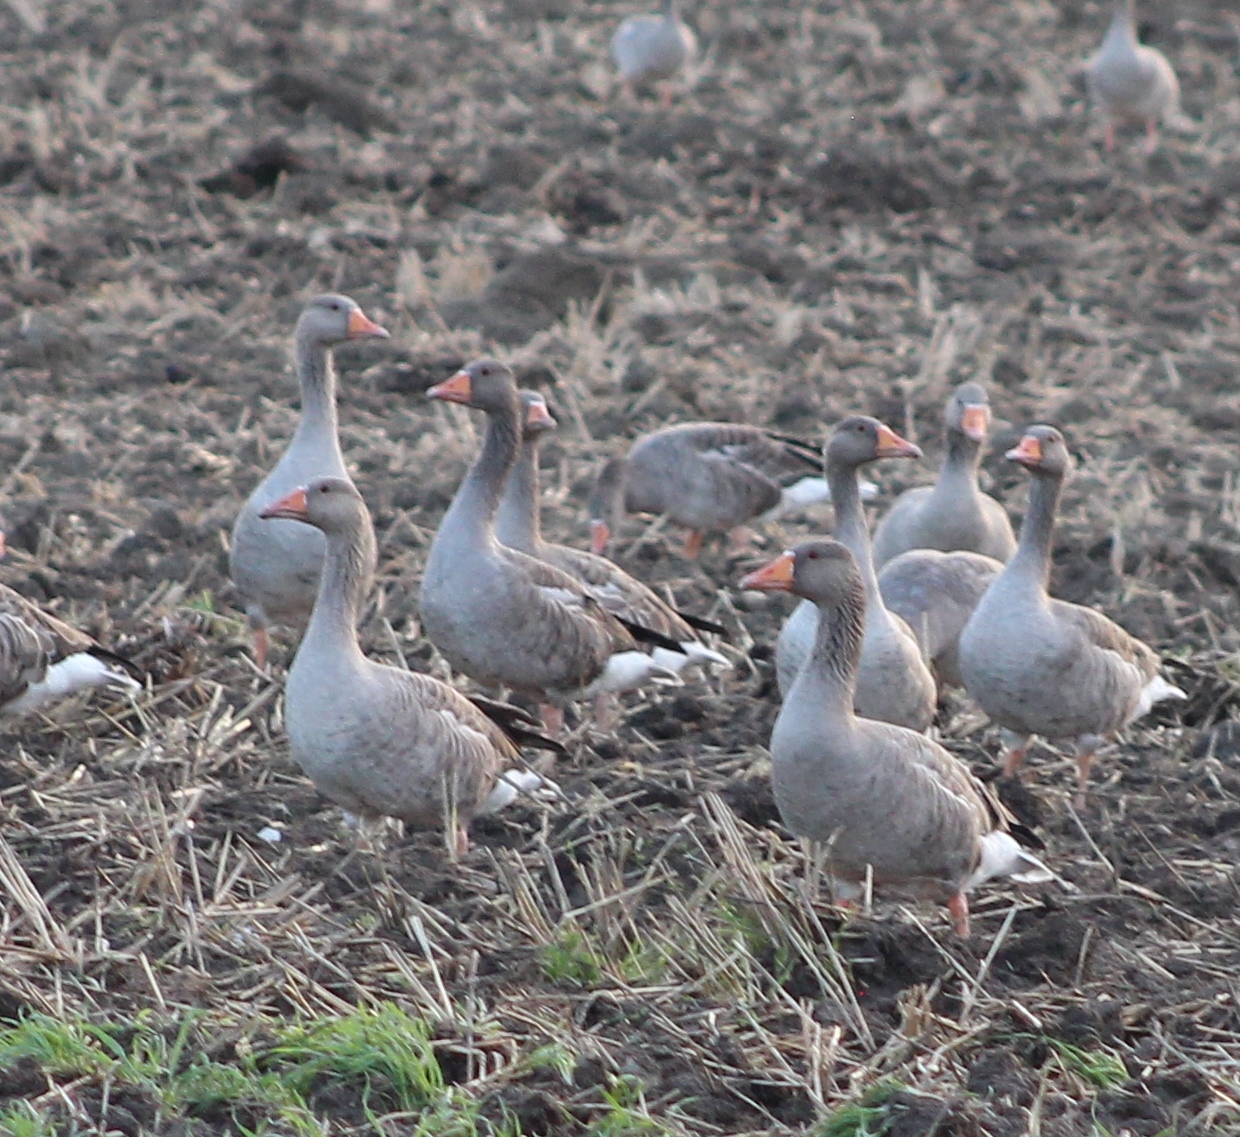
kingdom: Animalia
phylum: Chordata
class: Aves
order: Anseriformes
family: Anatidae
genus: Anser
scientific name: Anser anser
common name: Greylag goose
